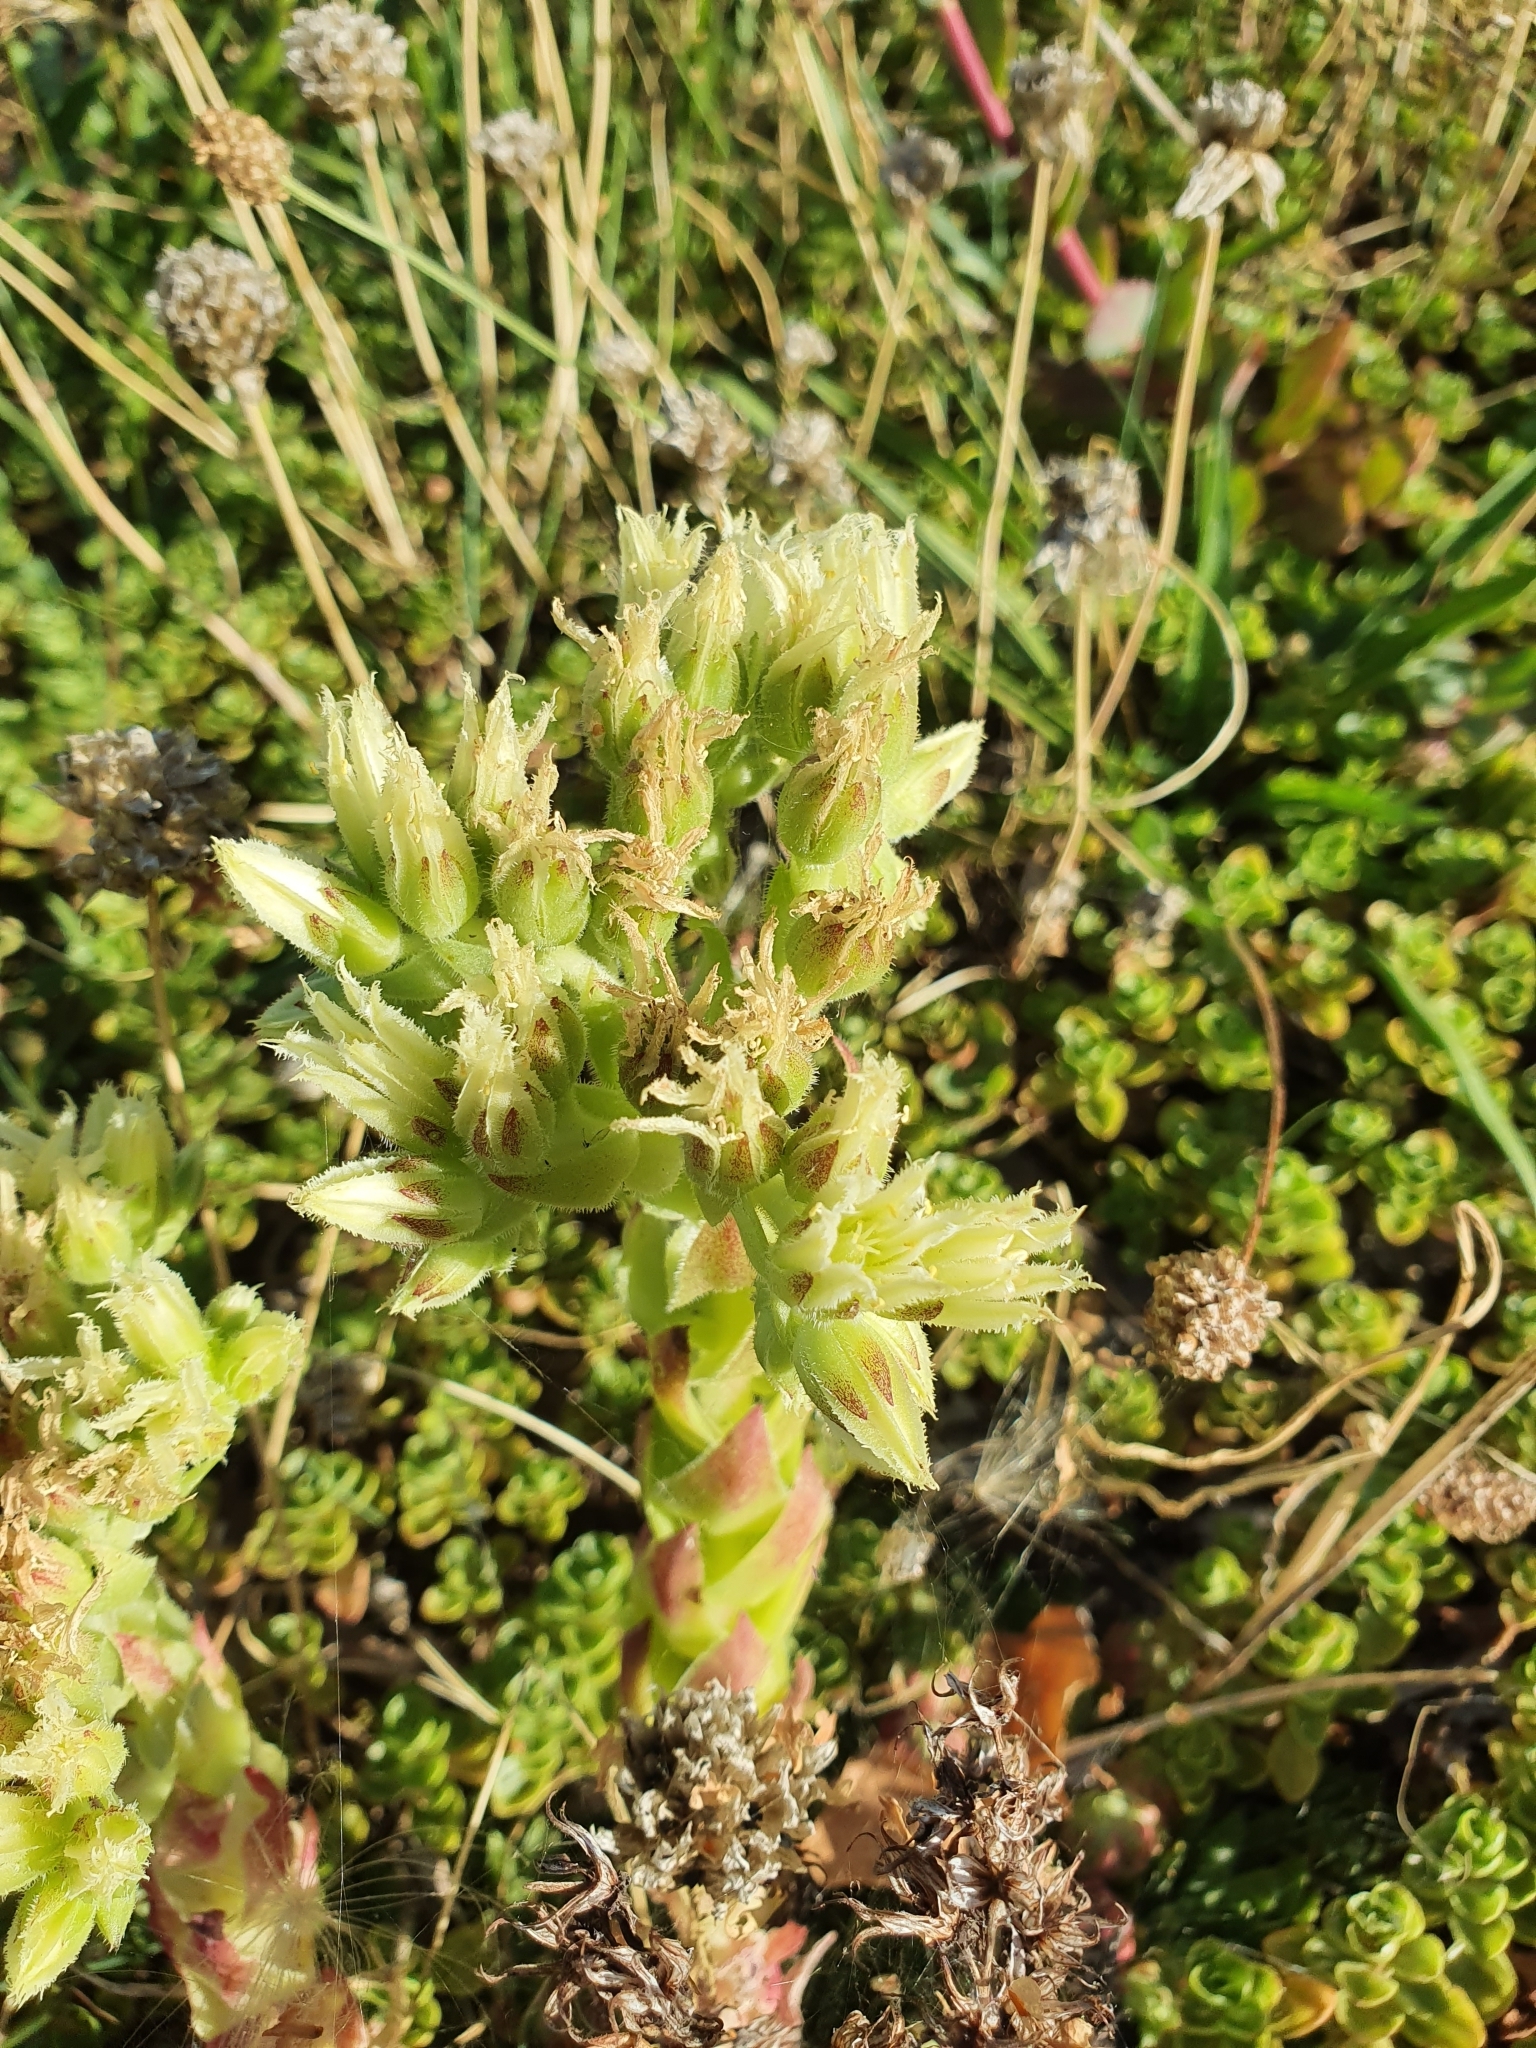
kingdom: Plantae
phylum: Tracheophyta
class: Magnoliopsida
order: Saxifragales
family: Crassulaceae
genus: Sempervivum
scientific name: Sempervivum globiferum
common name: Rolling hen-and-chicks
